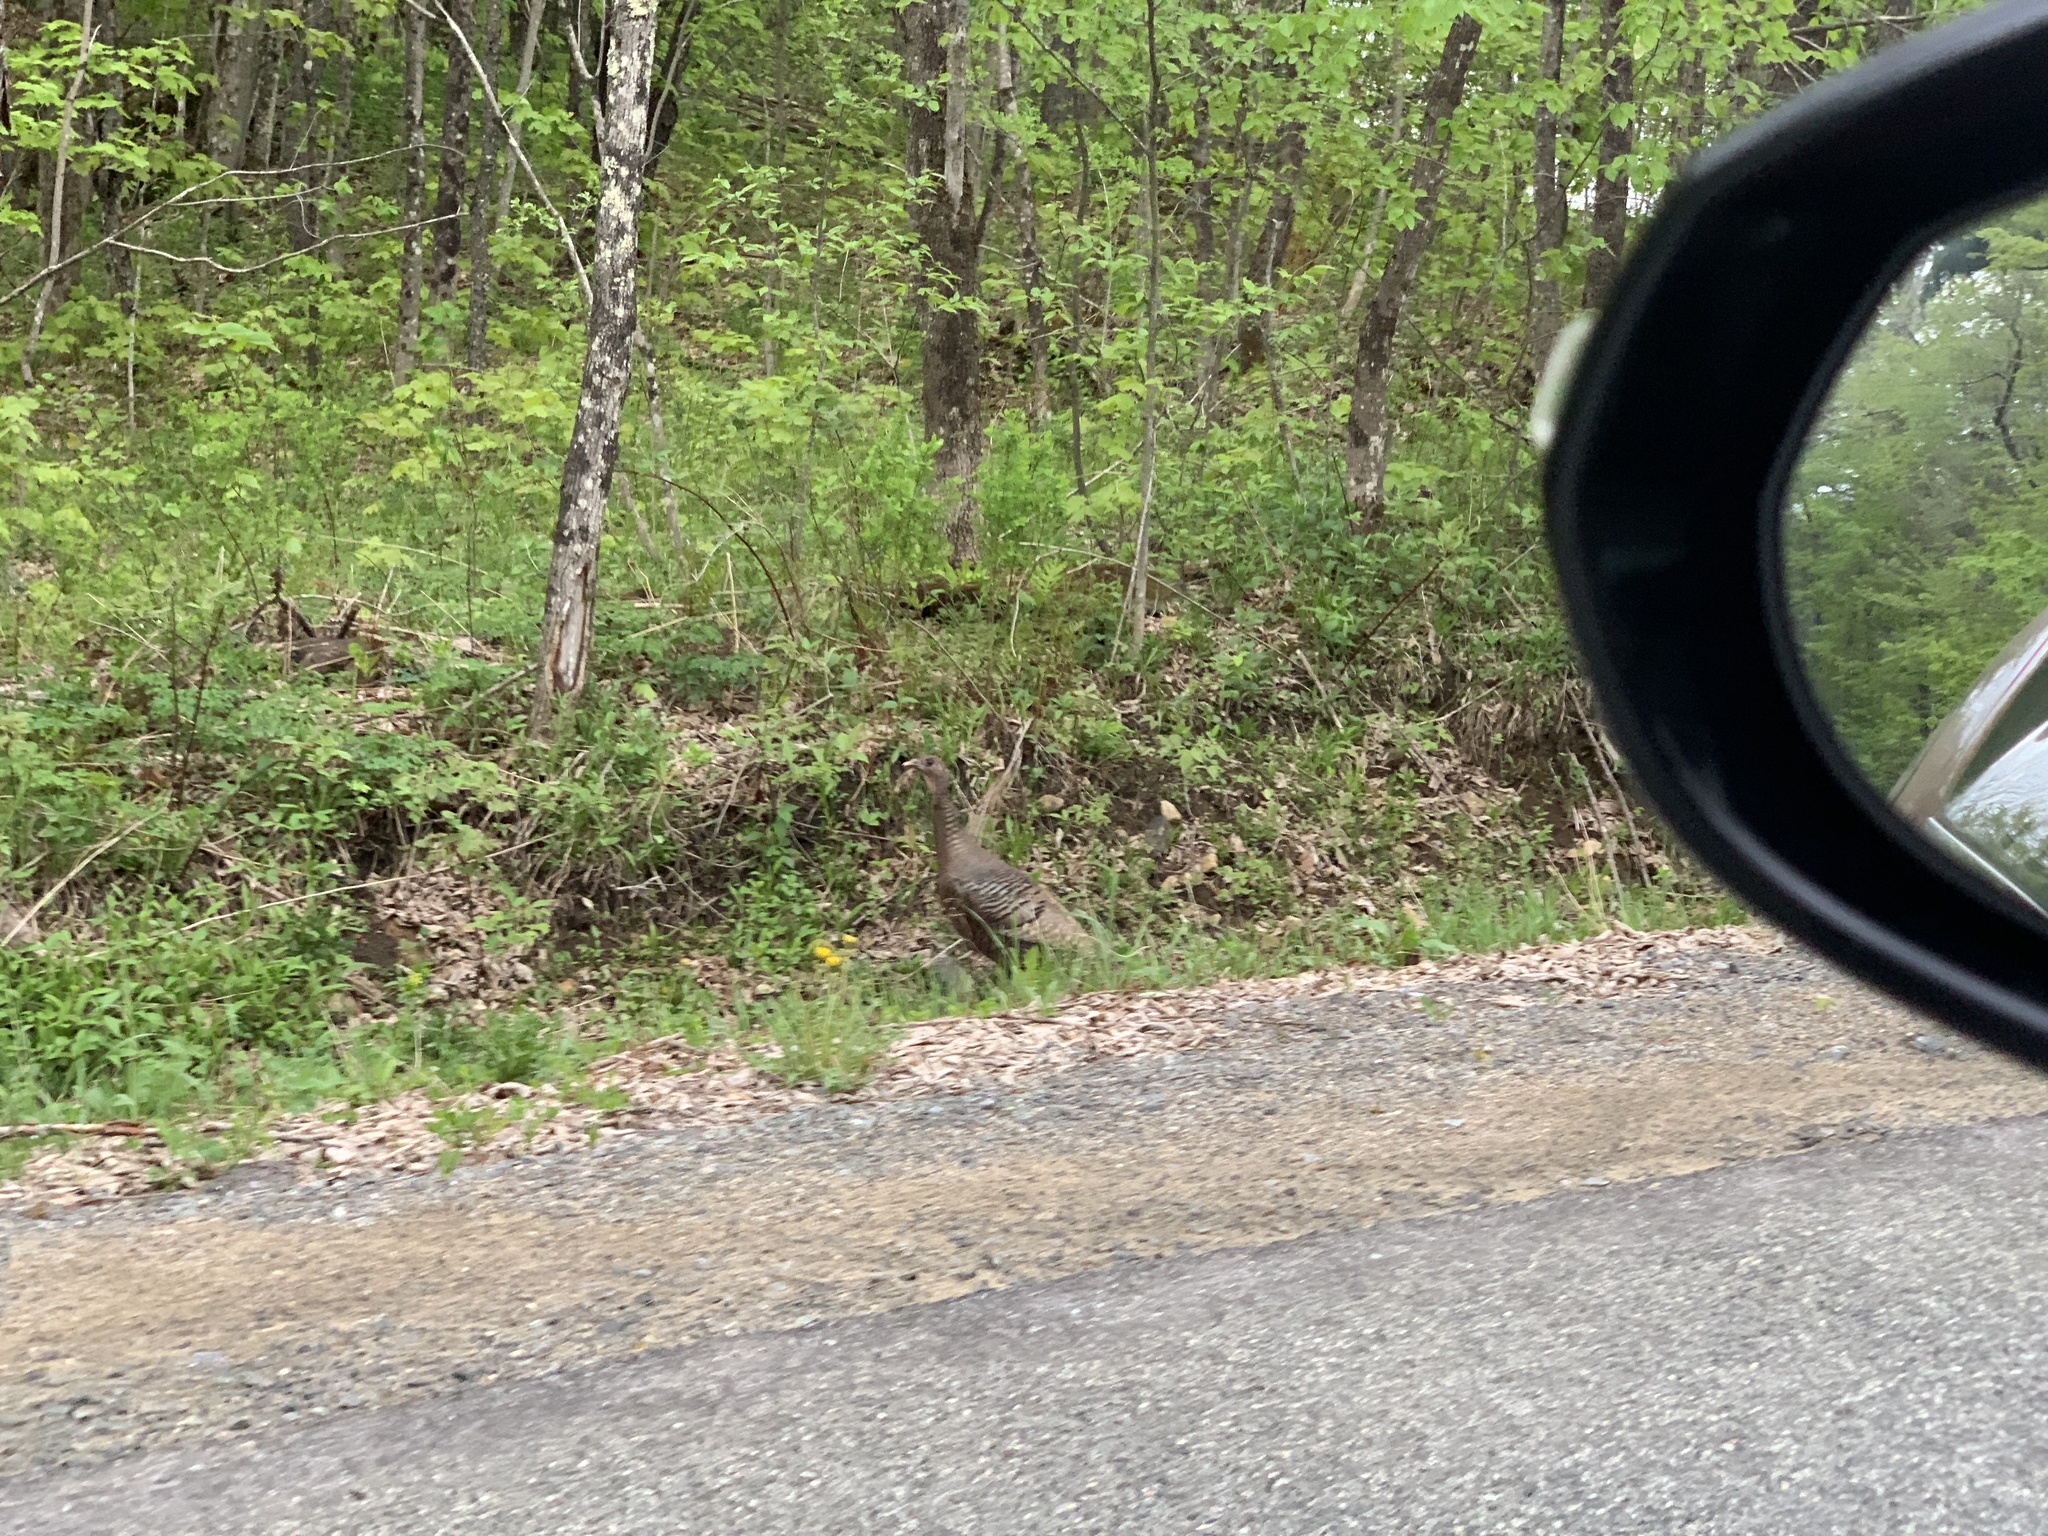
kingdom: Animalia
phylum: Chordata
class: Aves
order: Galliformes
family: Phasianidae
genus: Meleagris
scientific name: Meleagris gallopavo
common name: Wild turkey
